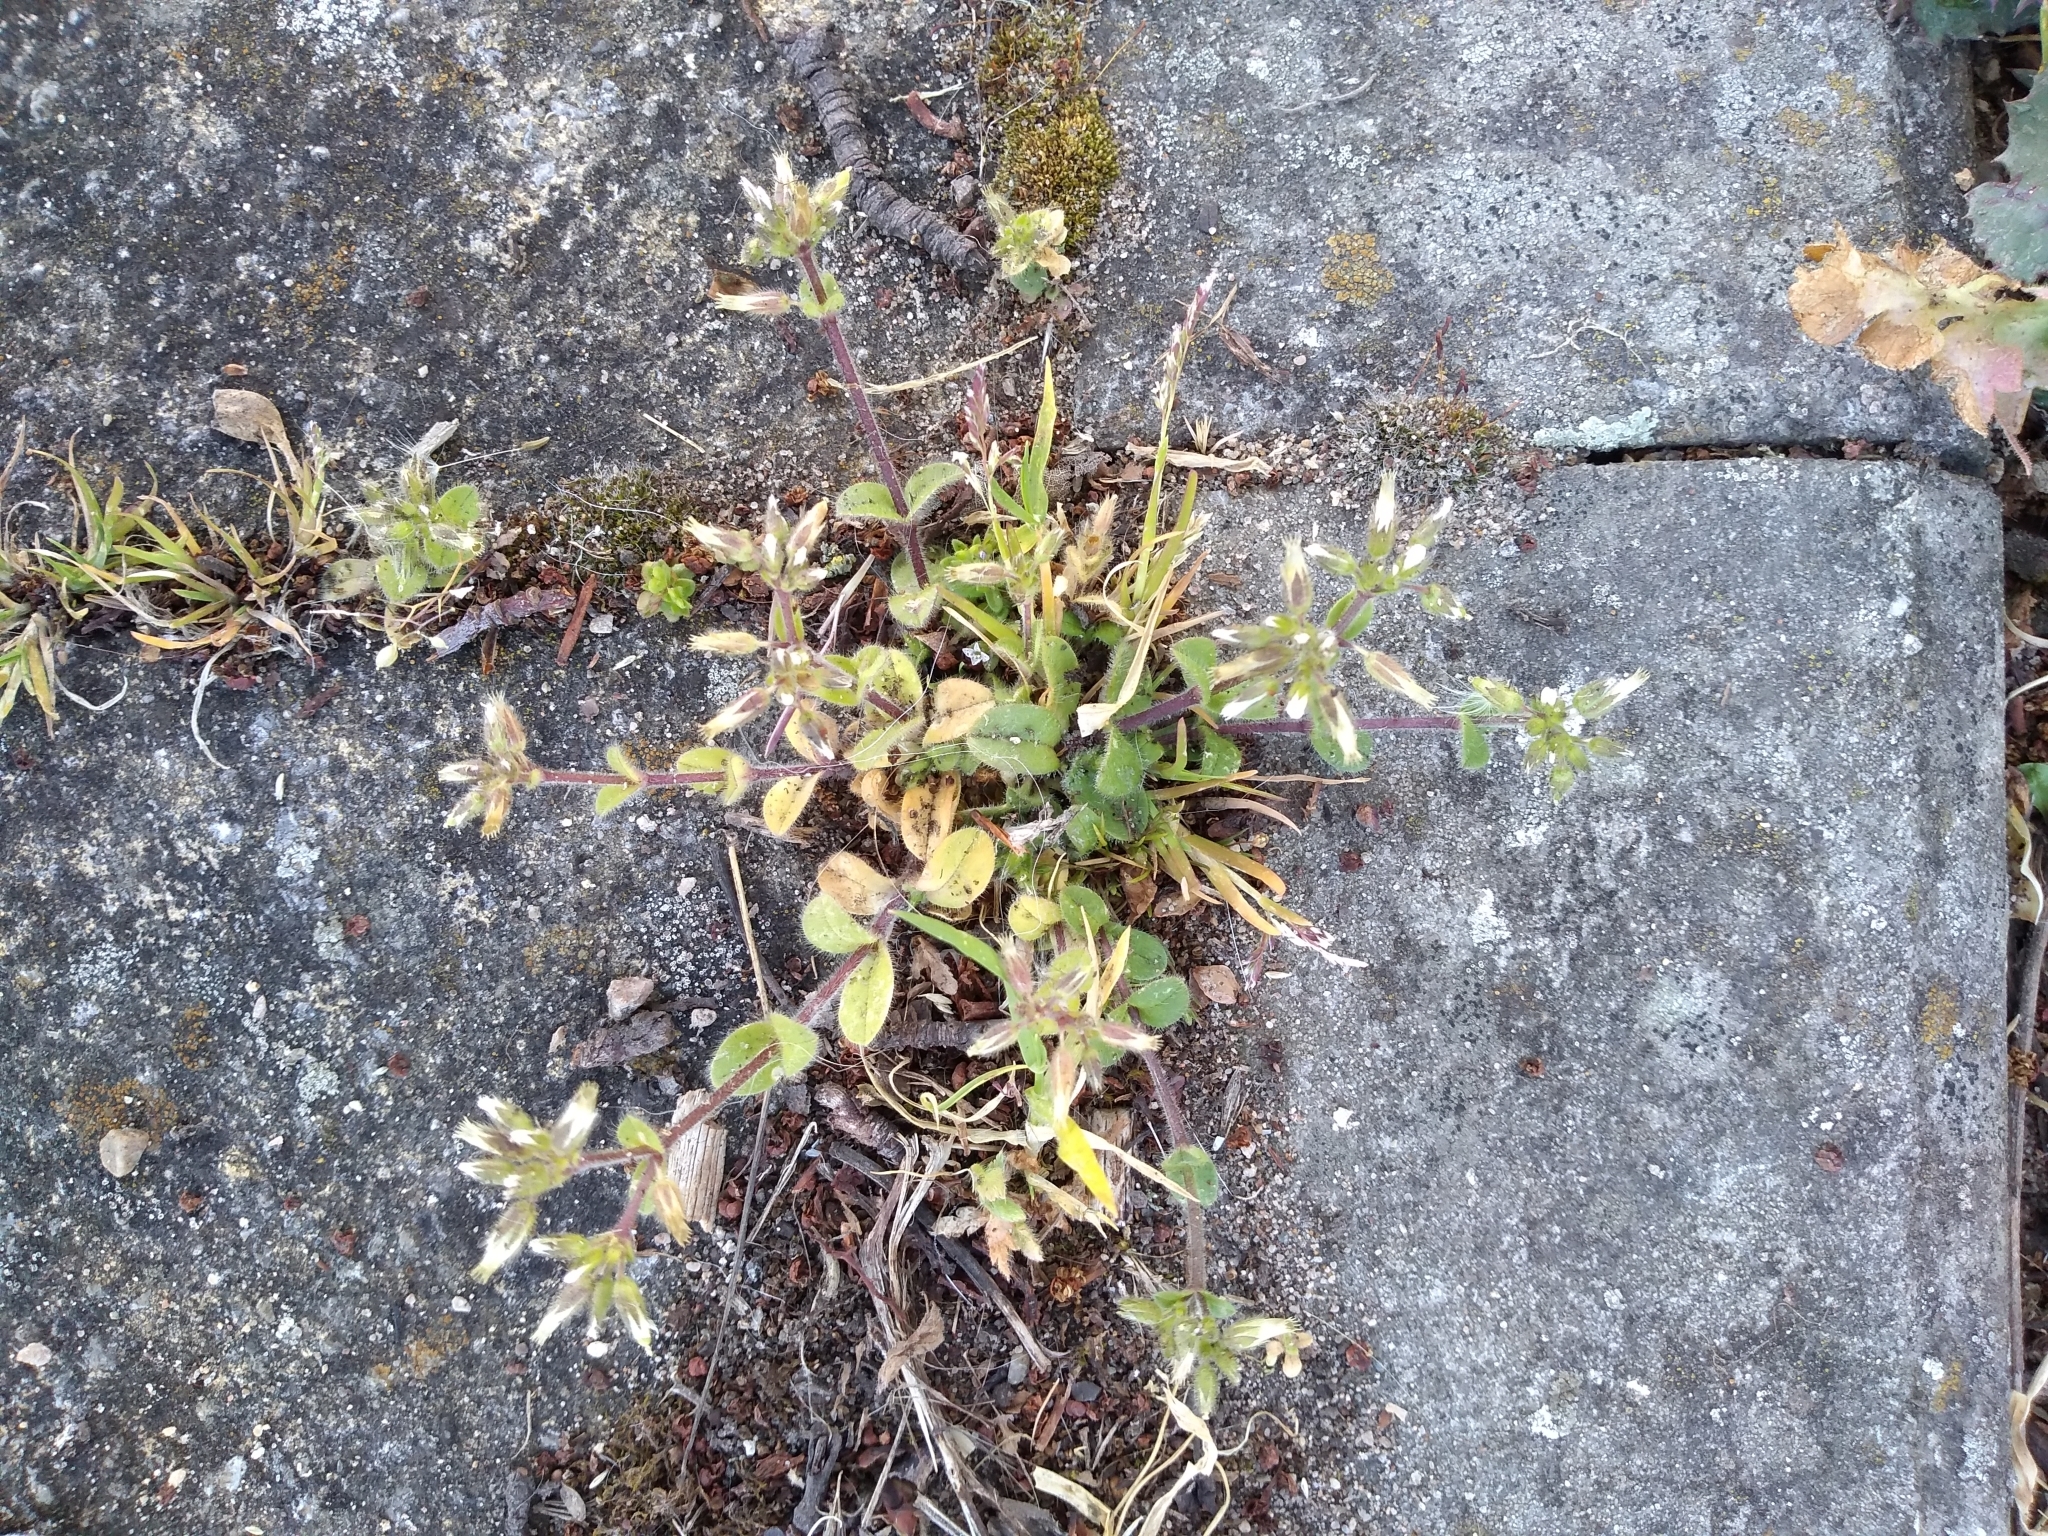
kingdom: Plantae
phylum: Tracheophyta
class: Magnoliopsida
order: Caryophyllales
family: Caryophyllaceae
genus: Cerastium
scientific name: Cerastium glomeratum
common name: Sticky chickweed
